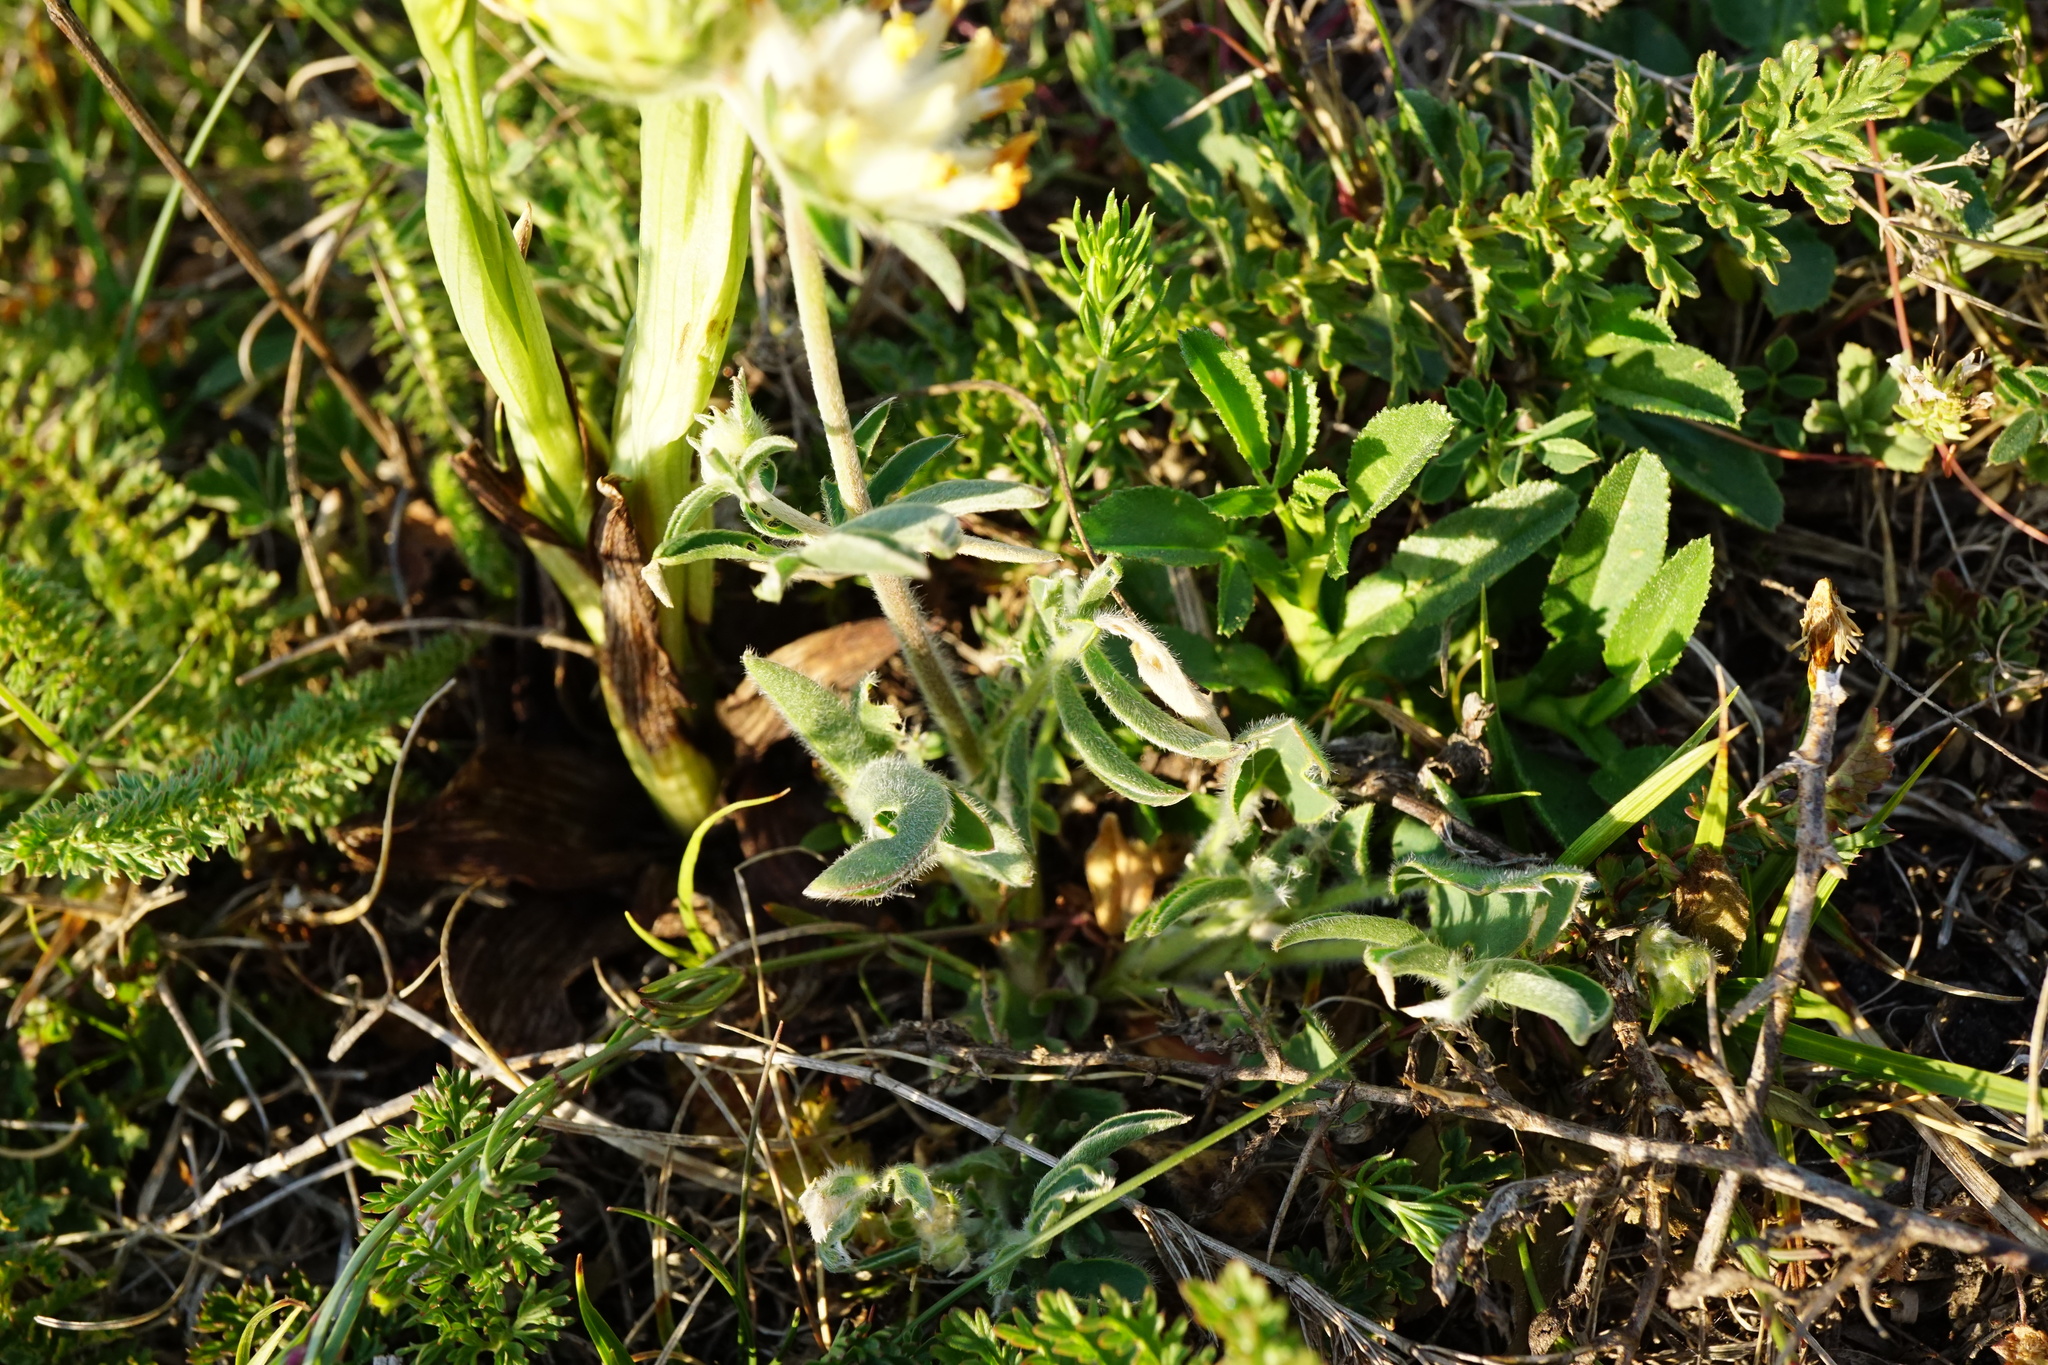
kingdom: Plantae
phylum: Tracheophyta
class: Magnoliopsida
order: Fabales
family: Fabaceae
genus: Anthyllis
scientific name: Anthyllis vulneraria
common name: Kidney vetch
